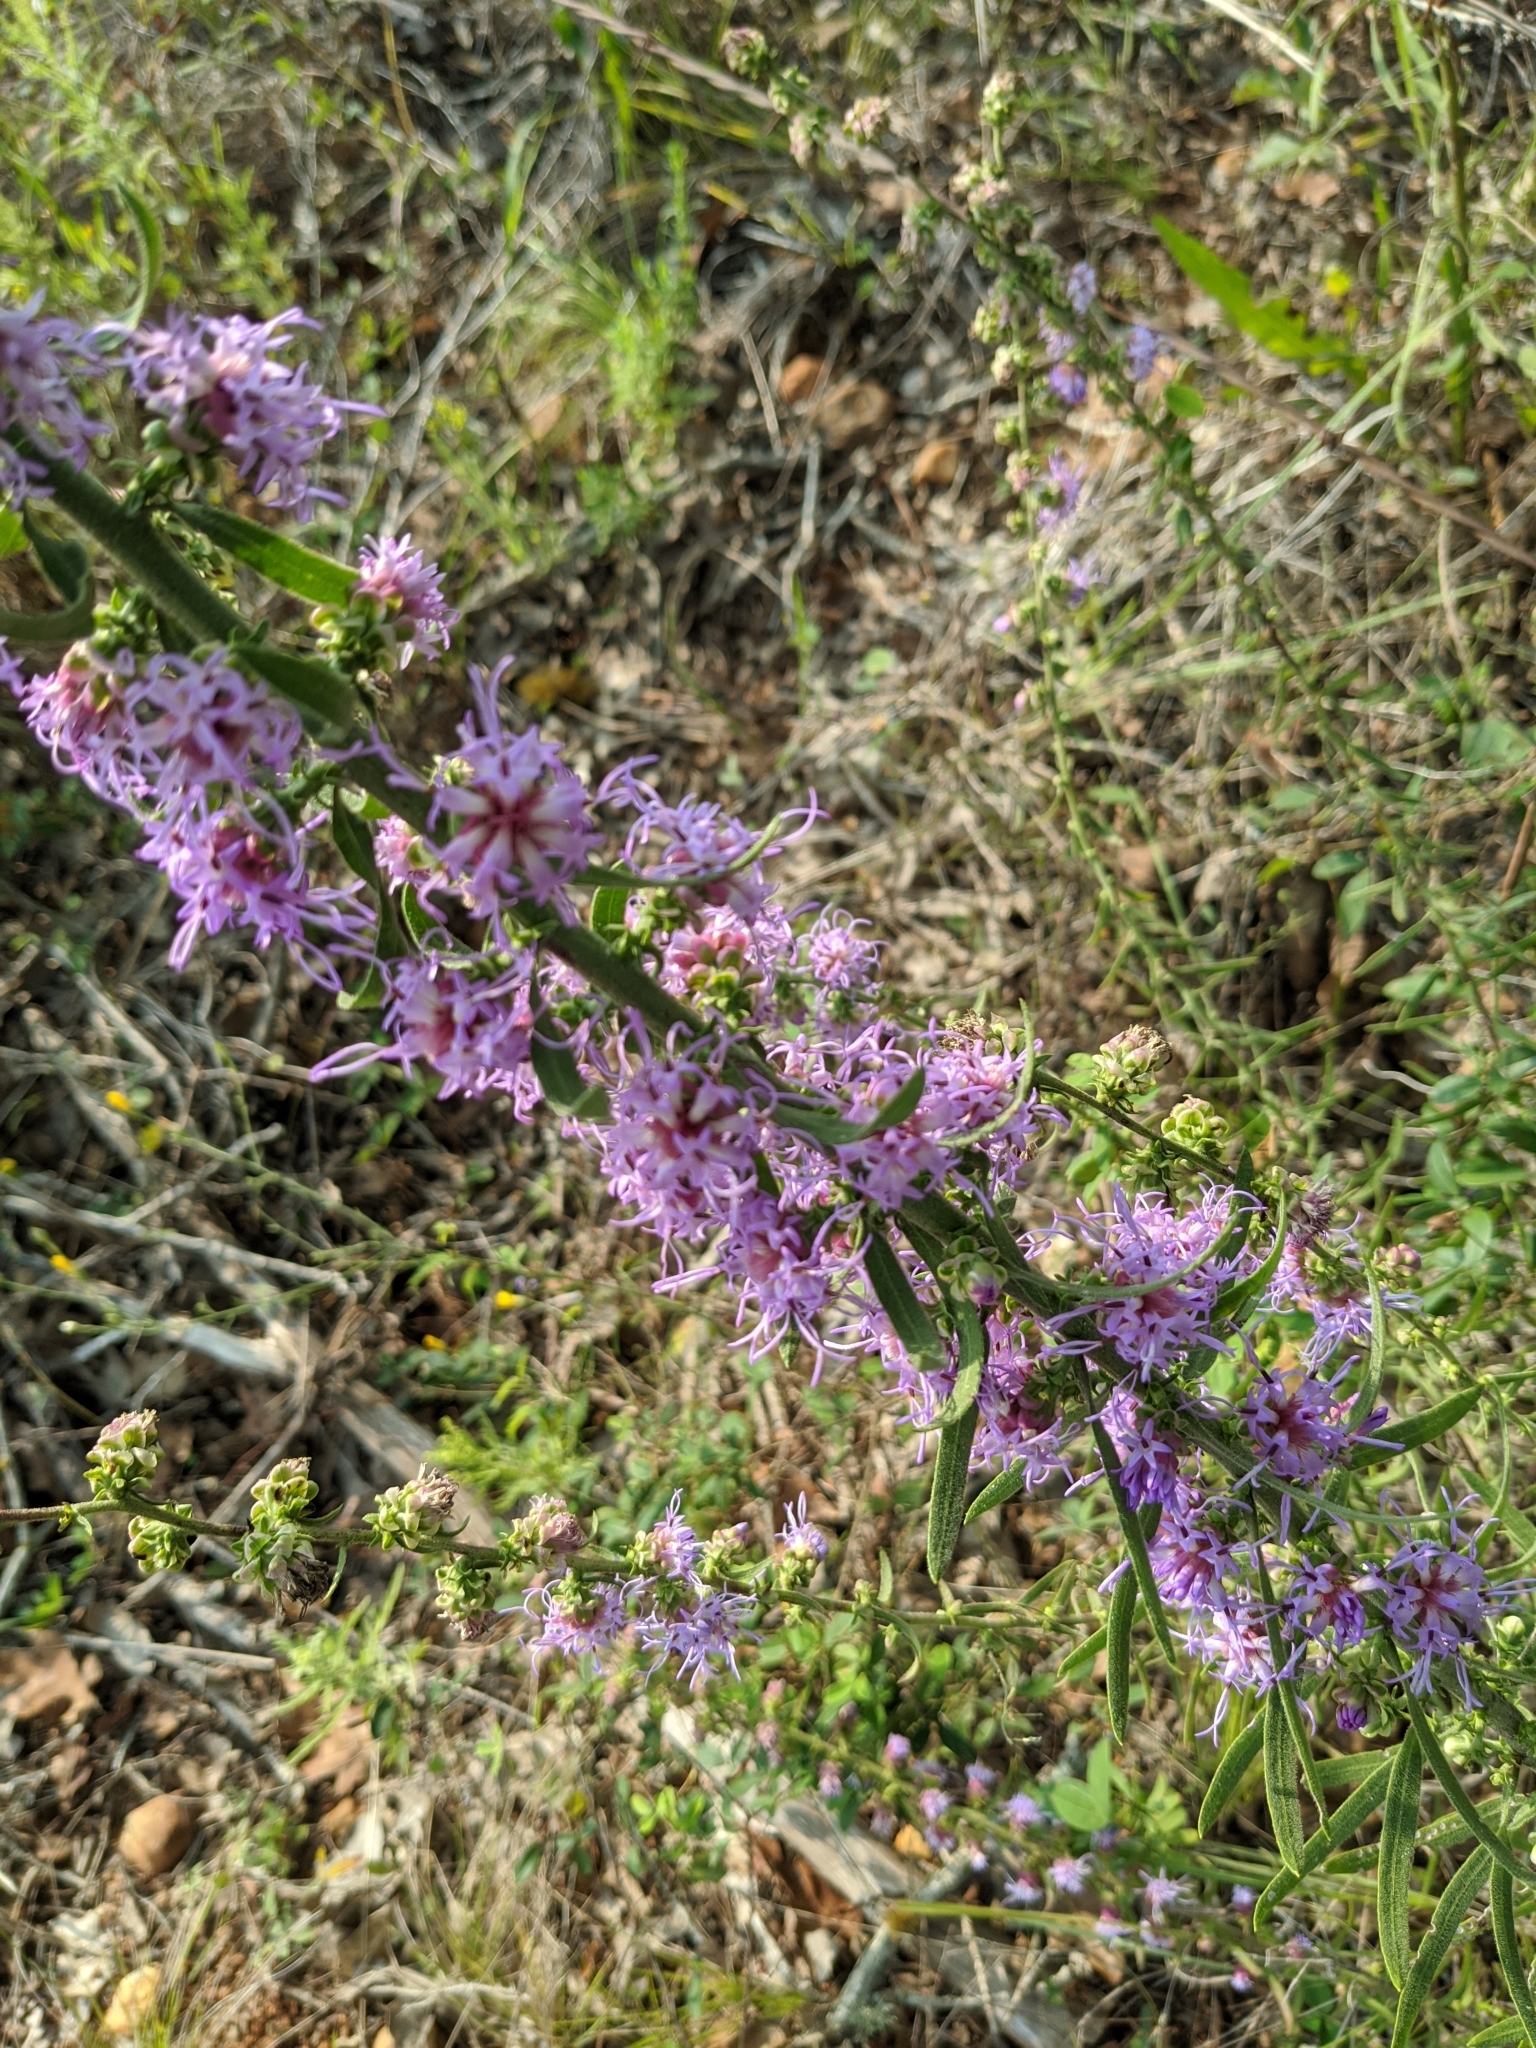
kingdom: Plantae
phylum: Tracheophyta
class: Magnoliopsida
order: Asterales
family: Asteraceae
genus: Liatris
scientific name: Liatris aspera
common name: Lacerate blazing-star
